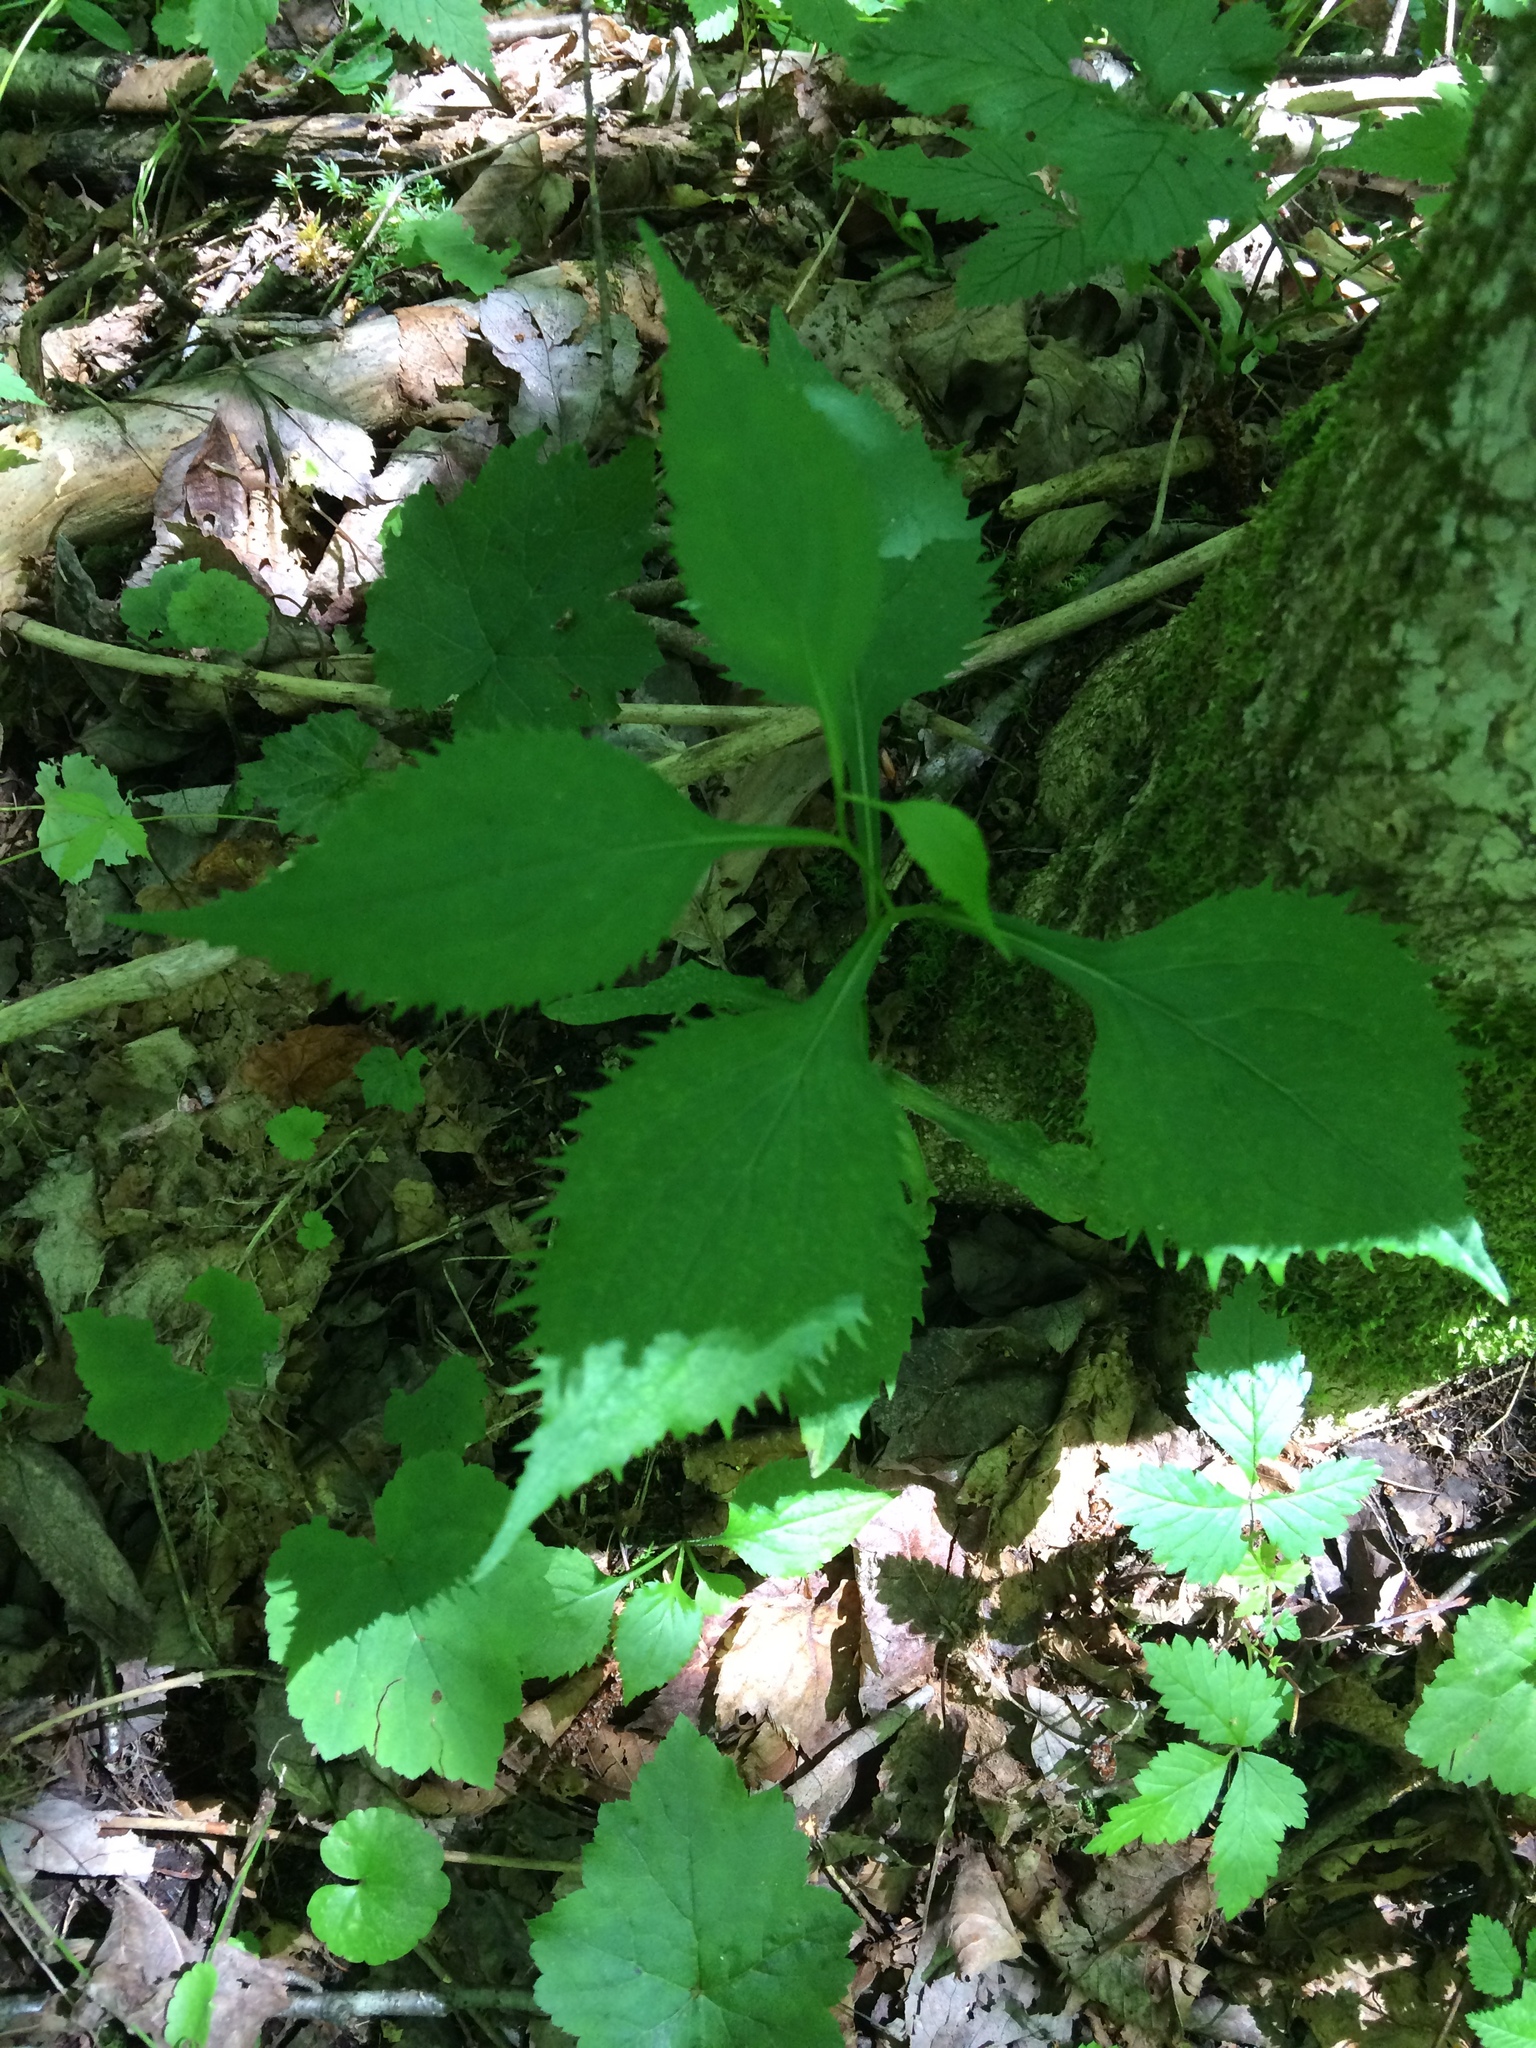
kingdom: Plantae
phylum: Tracheophyta
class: Magnoliopsida
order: Asterales
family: Asteraceae
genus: Solidago
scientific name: Solidago flexicaulis
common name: Zig-zag goldenrod
